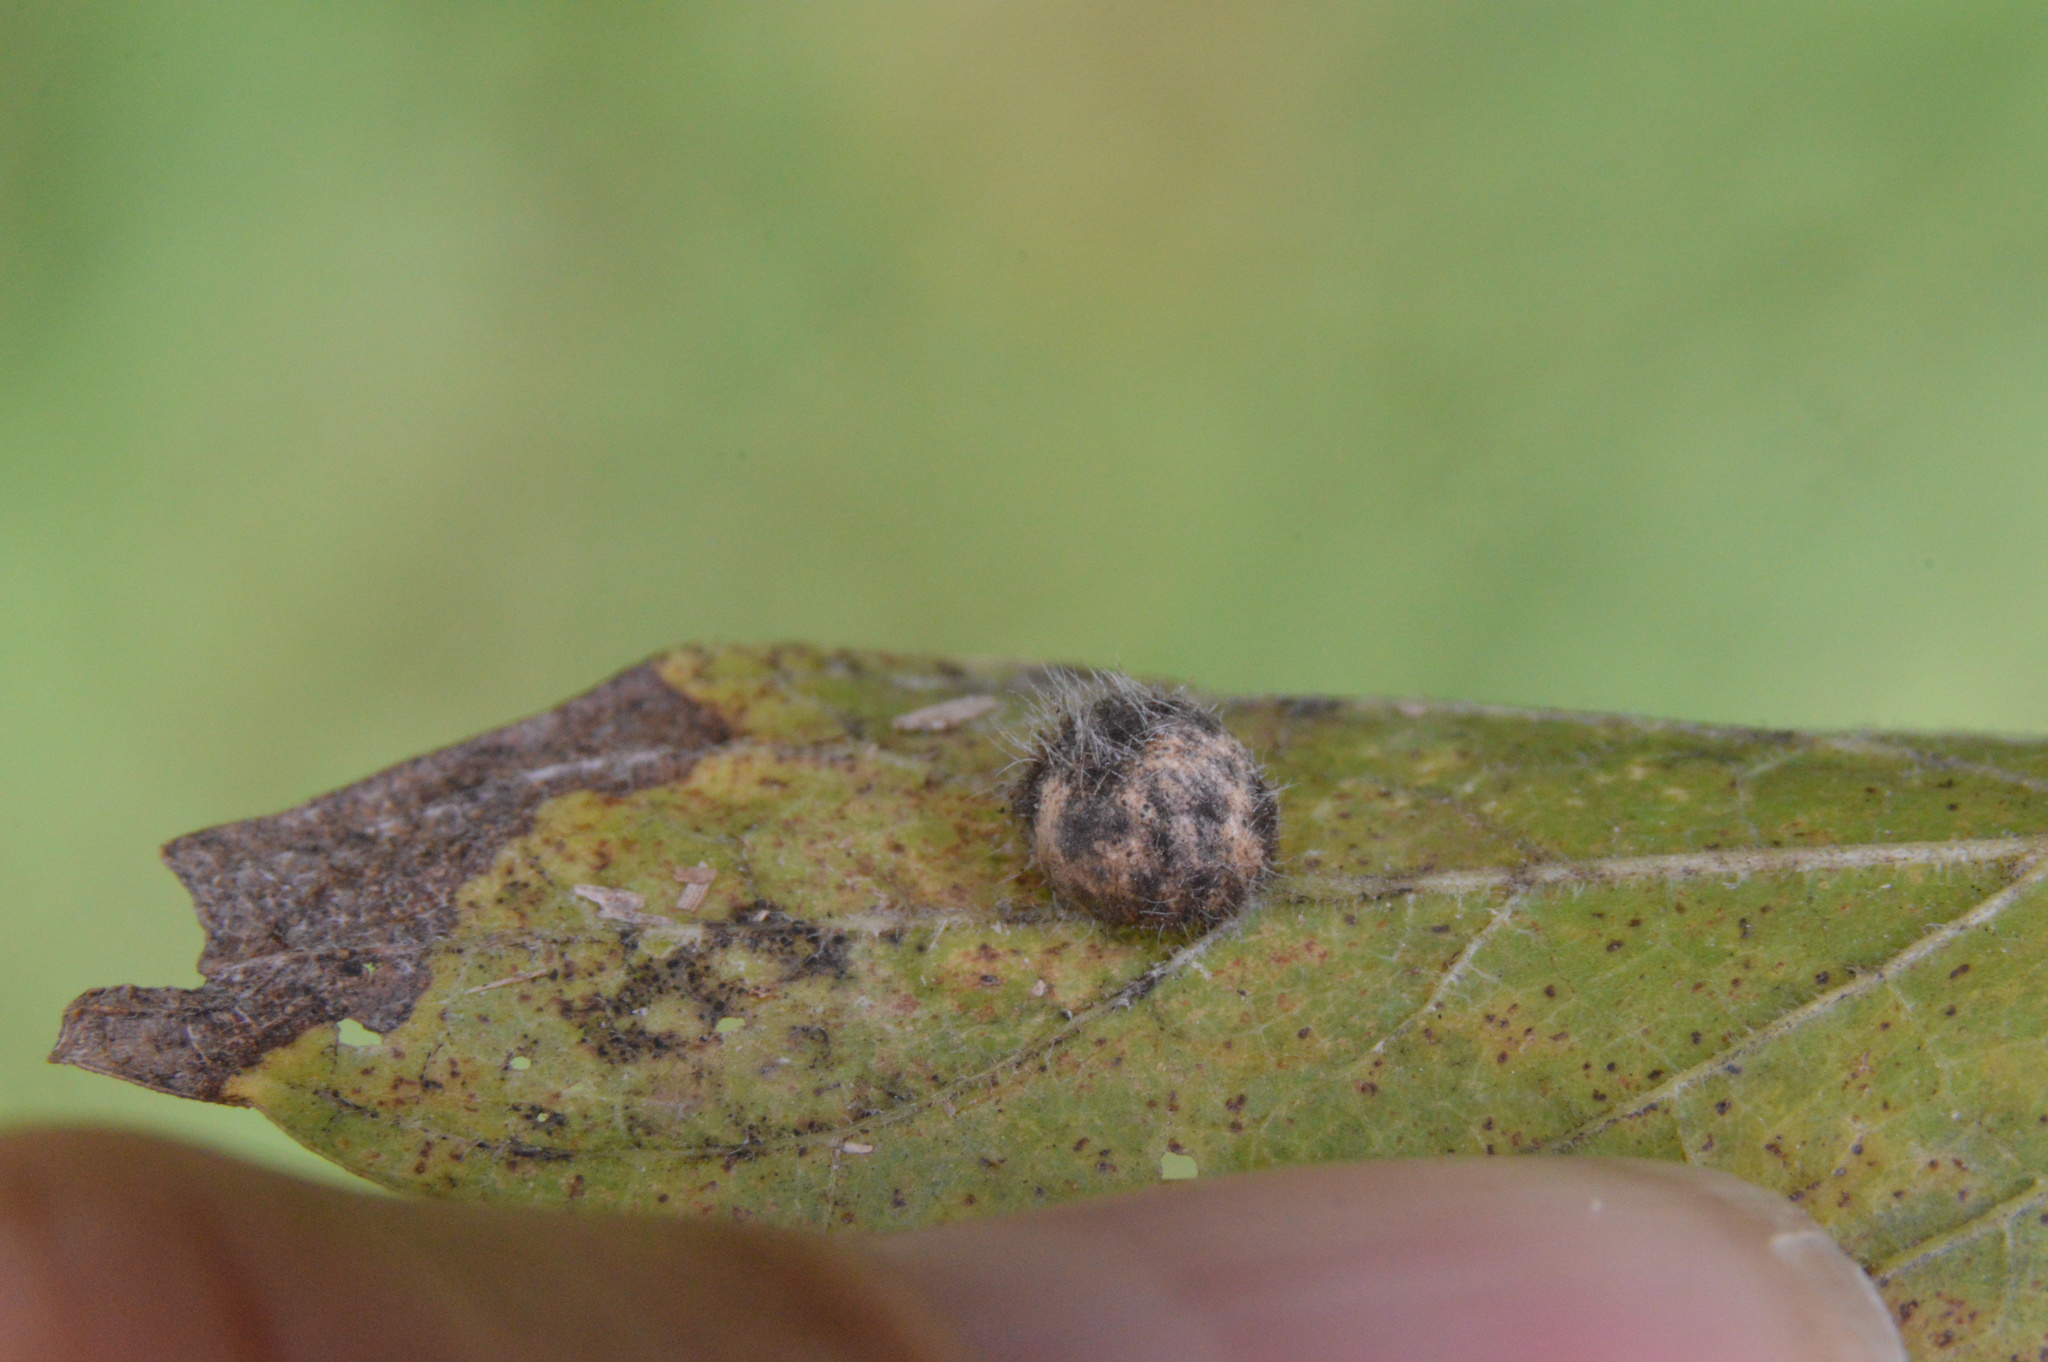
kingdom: Animalia
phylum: Arthropoda
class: Insecta
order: Diptera
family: Cecidomyiidae
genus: Celticecis
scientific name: Celticecis pubescens
